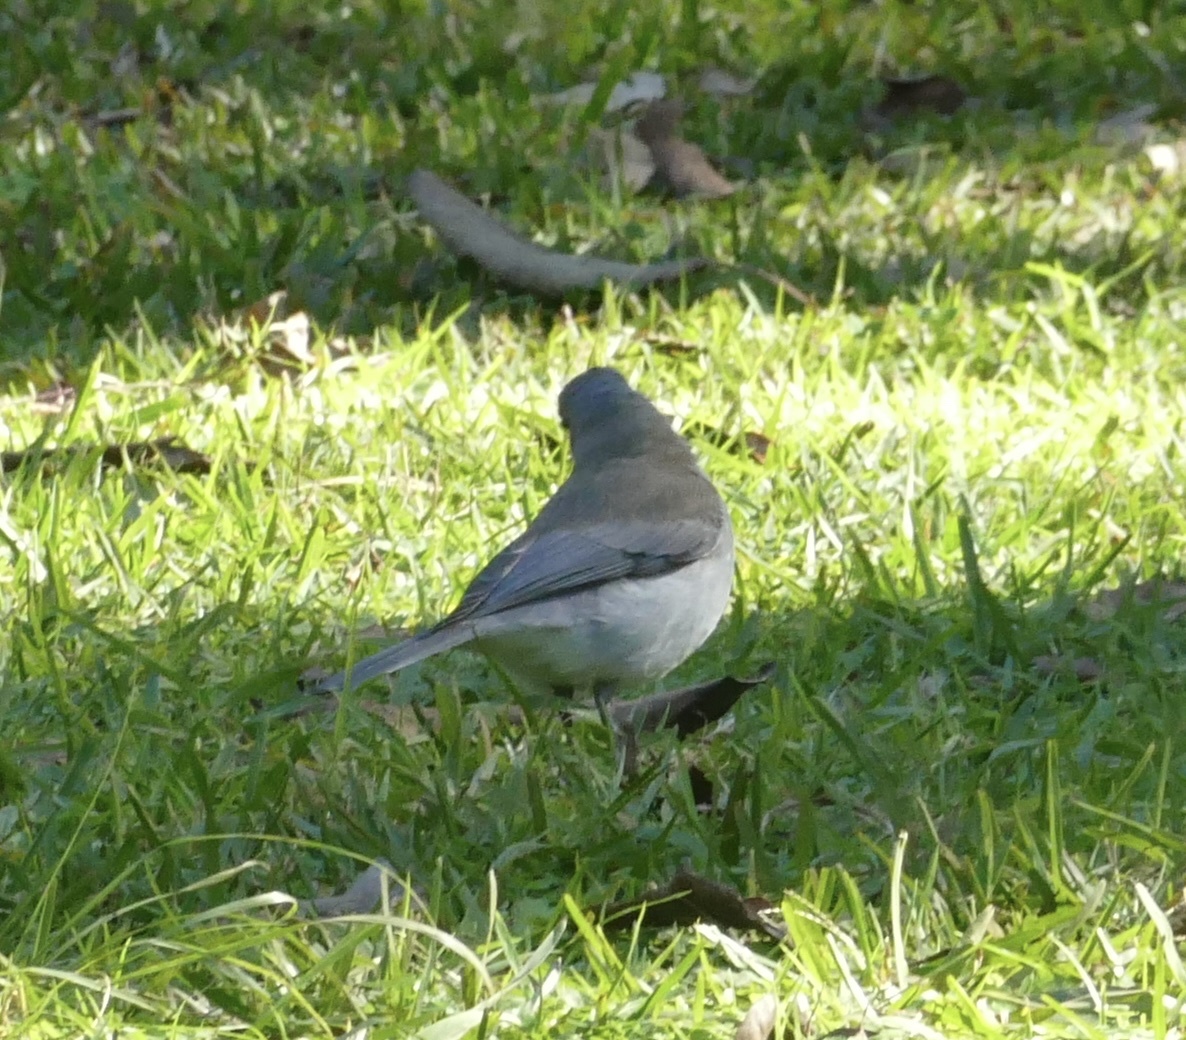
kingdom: Animalia
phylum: Chordata
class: Aves
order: Passeriformes
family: Pachycephalidae
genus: Colluricincla
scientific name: Colluricincla harmonica
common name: Grey shrikethrush
